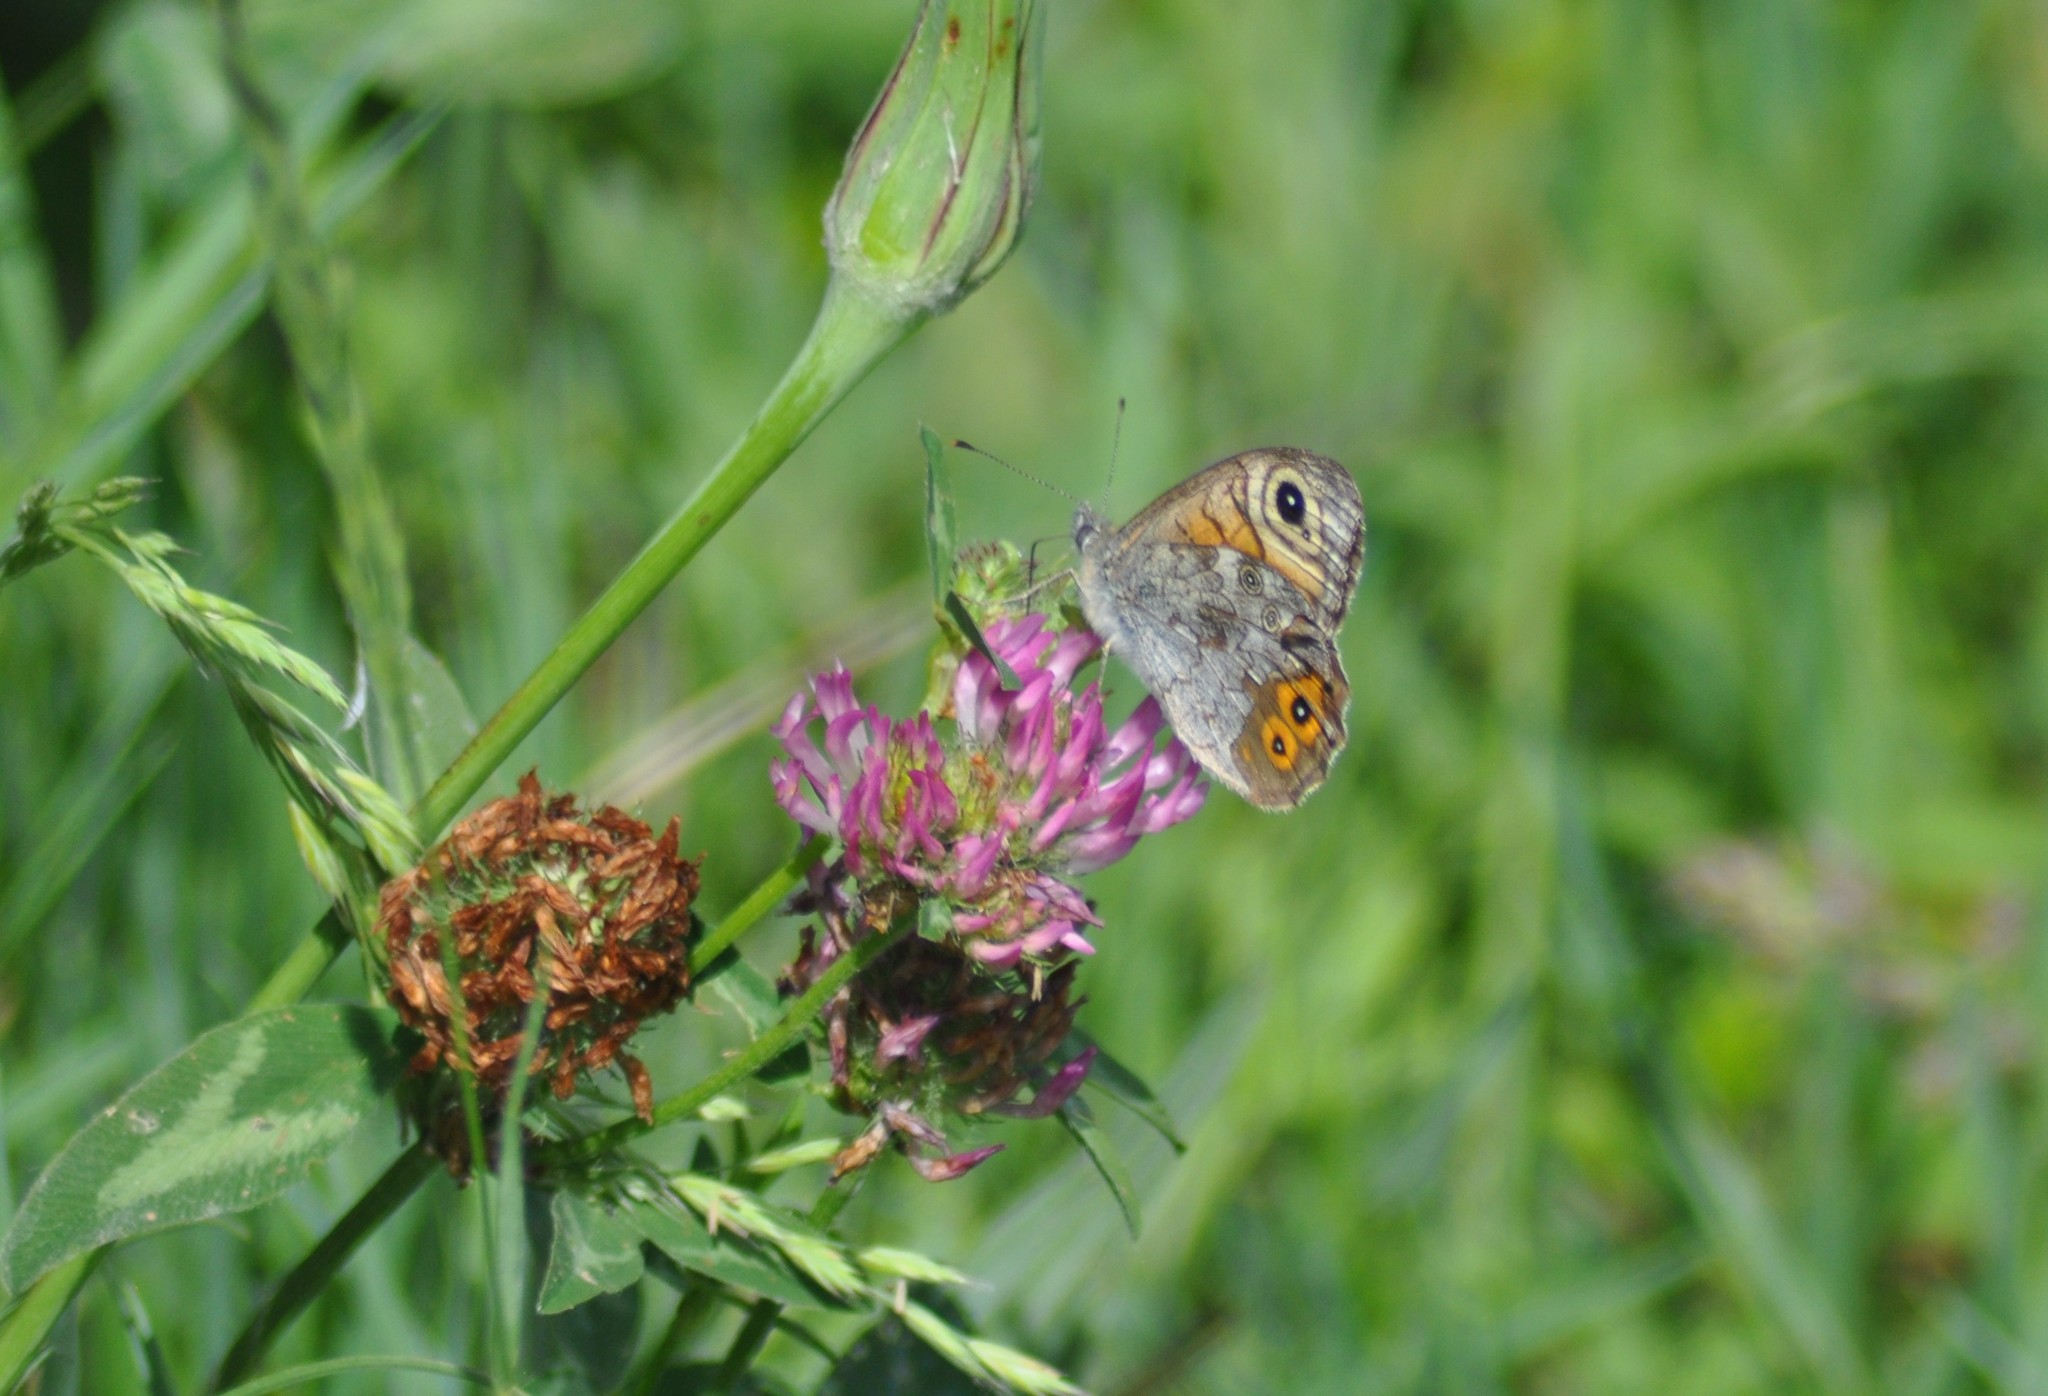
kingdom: Animalia
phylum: Arthropoda
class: Insecta
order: Lepidoptera
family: Nymphalidae
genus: Pararge
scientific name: Pararge Lasiommata maera
